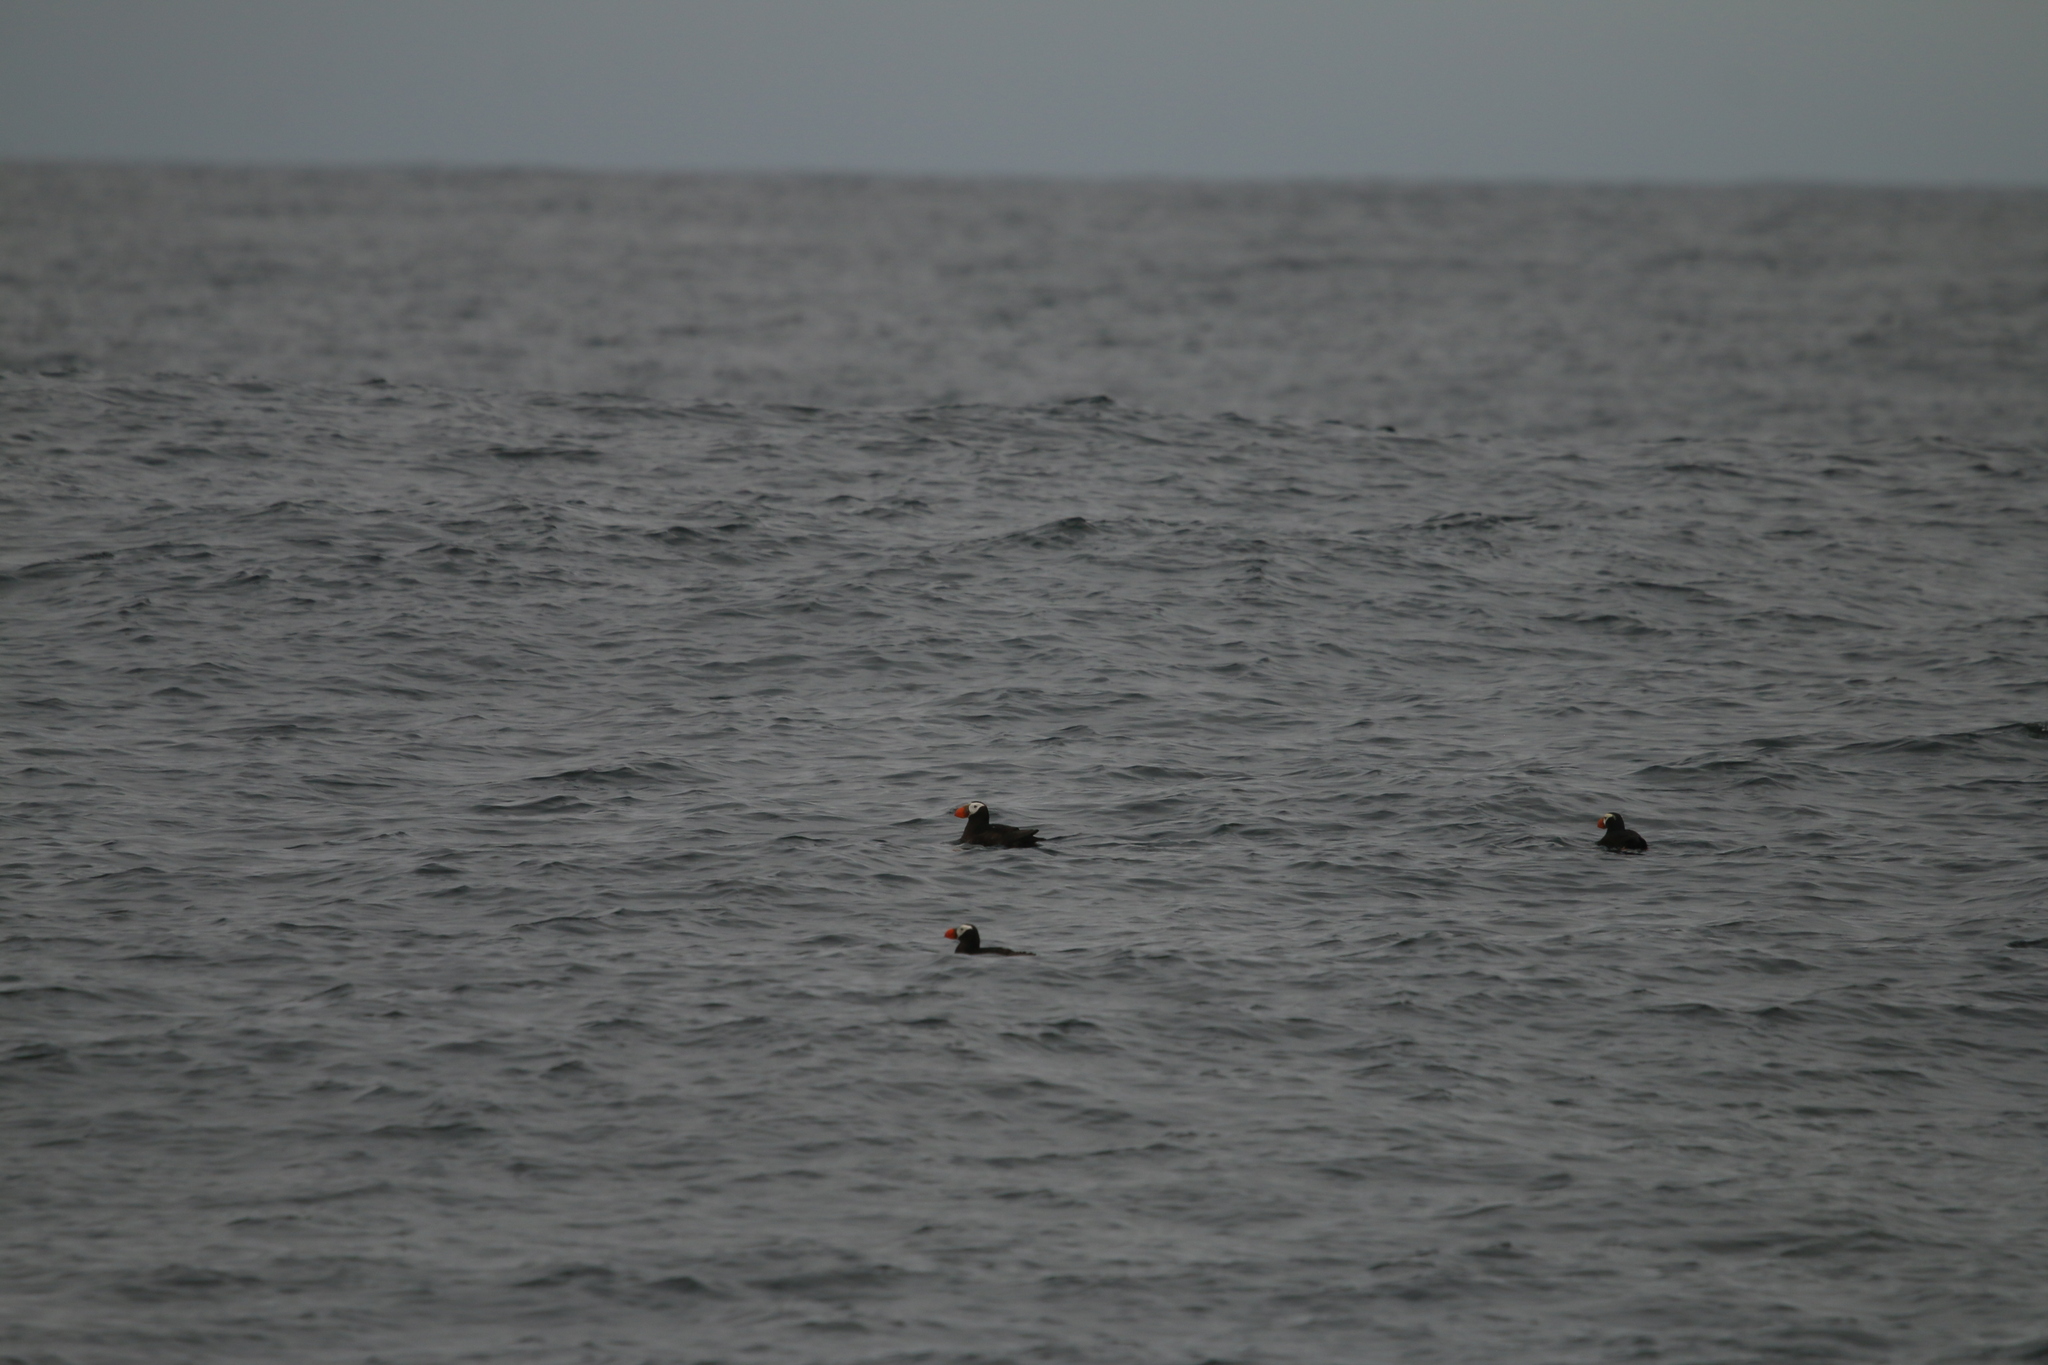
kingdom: Animalia
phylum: Chordata
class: Aves
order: Charadriiformes
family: Alcidae
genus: Fratercula
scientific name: Fratercula cirrhata
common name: Tufted puffin
